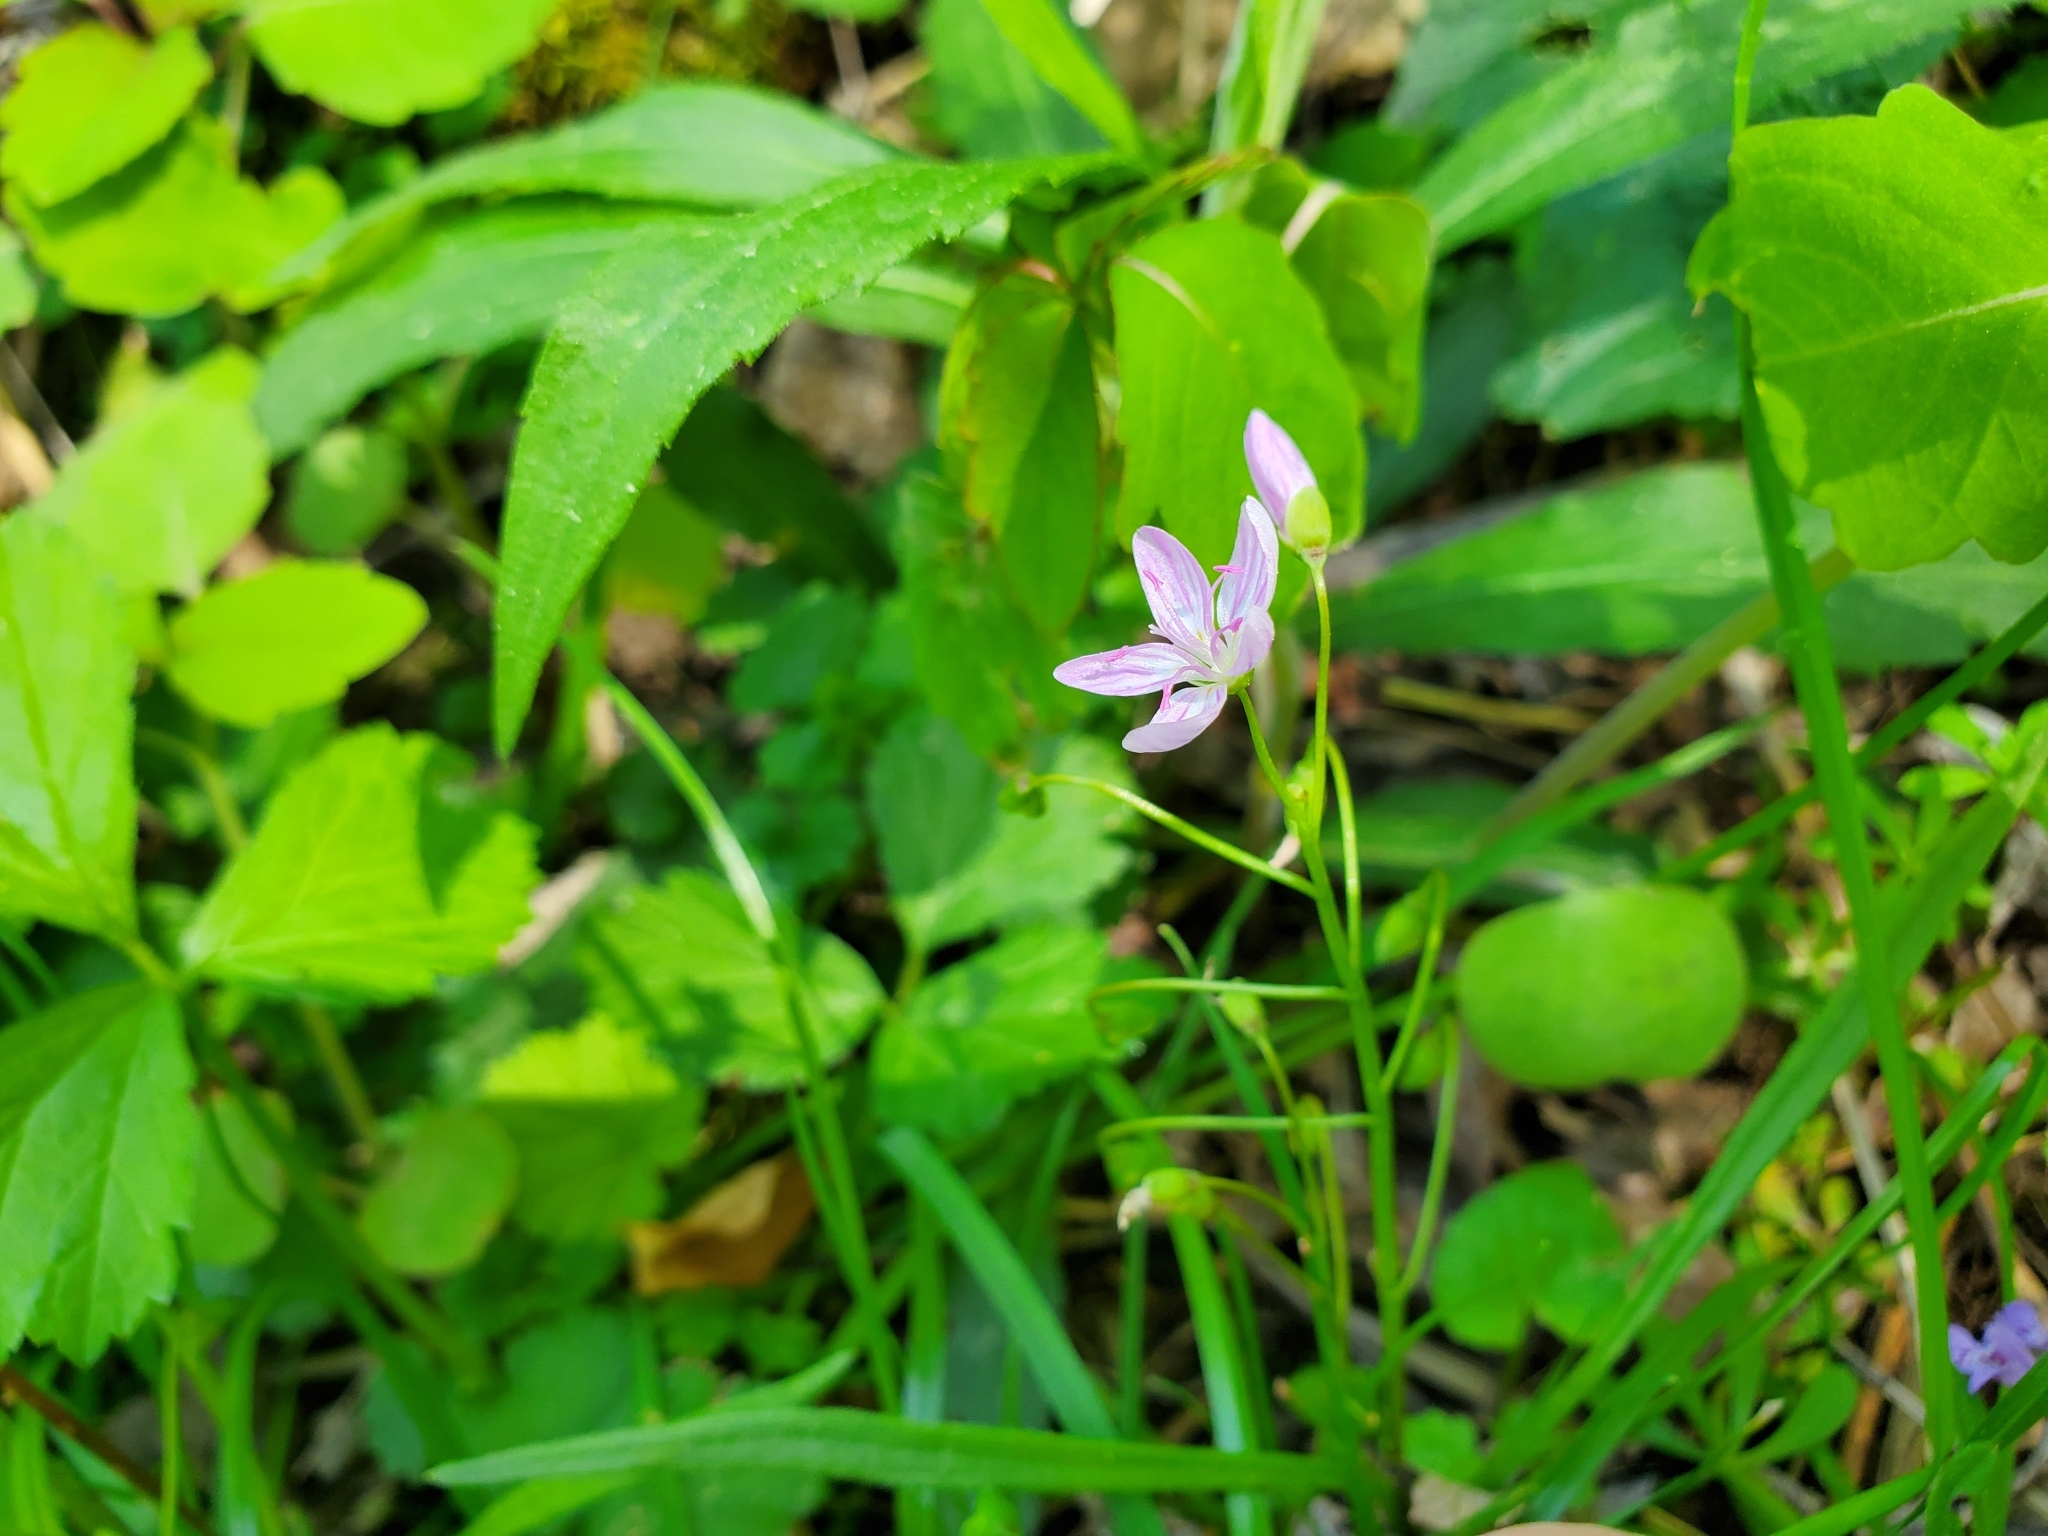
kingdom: Plantae
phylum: Tracheophyta
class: Magnoliopsida
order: Caryophyllales
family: Montiaceae
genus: Claytonia
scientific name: Claytonia virginica
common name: Virginia springbeauty
